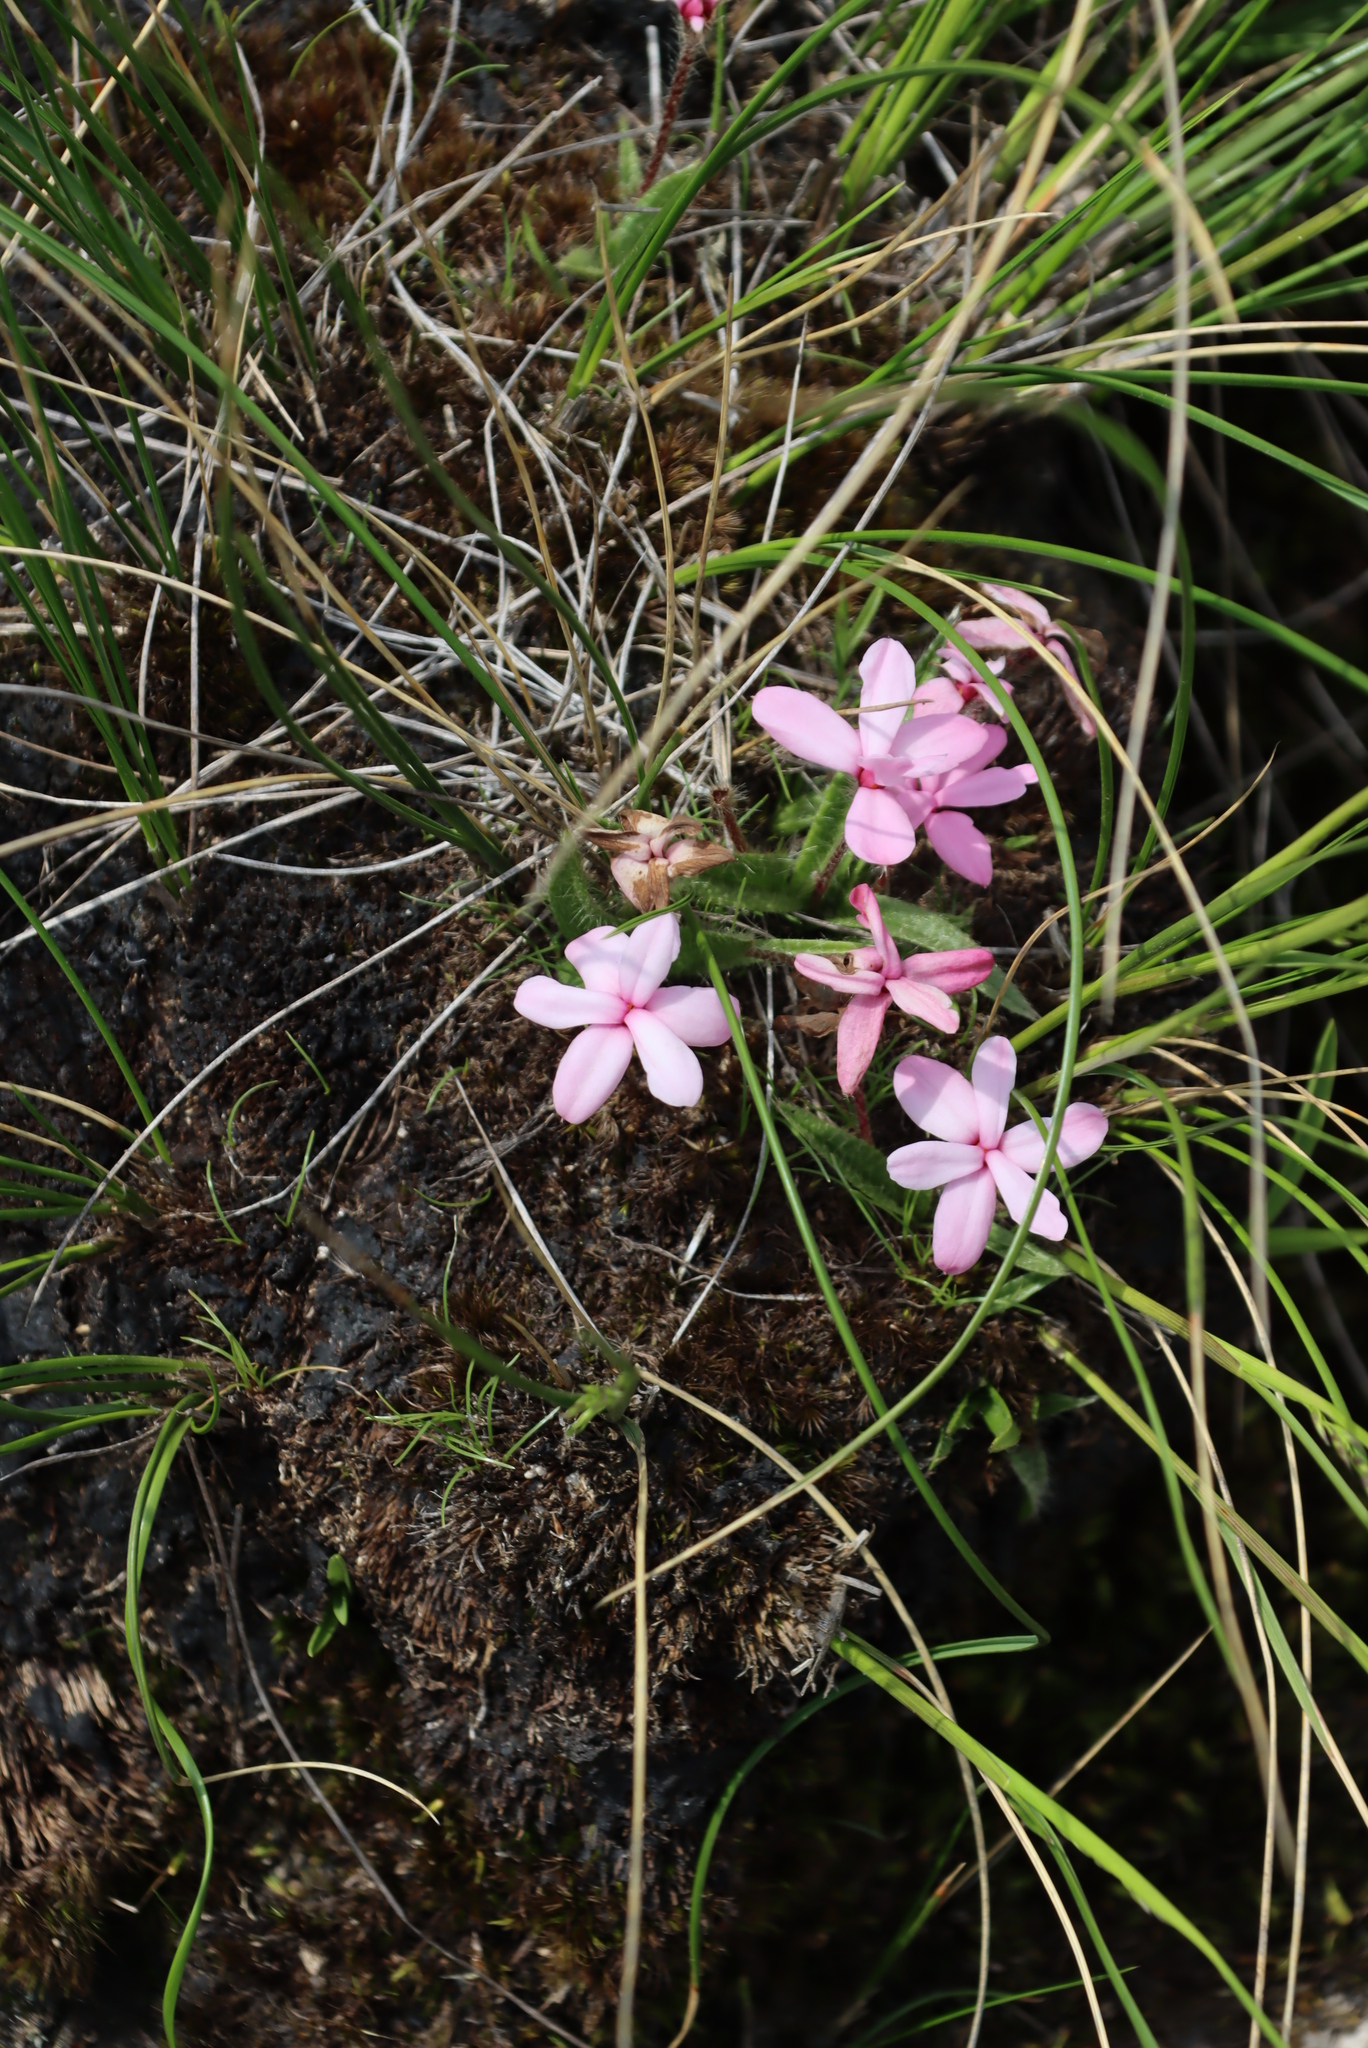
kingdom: Plantae
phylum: Tracheophyta
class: Liliopsida
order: Asparagales
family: Hypoxidaceae
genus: Hypoxis
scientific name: Hypoxis baurii
